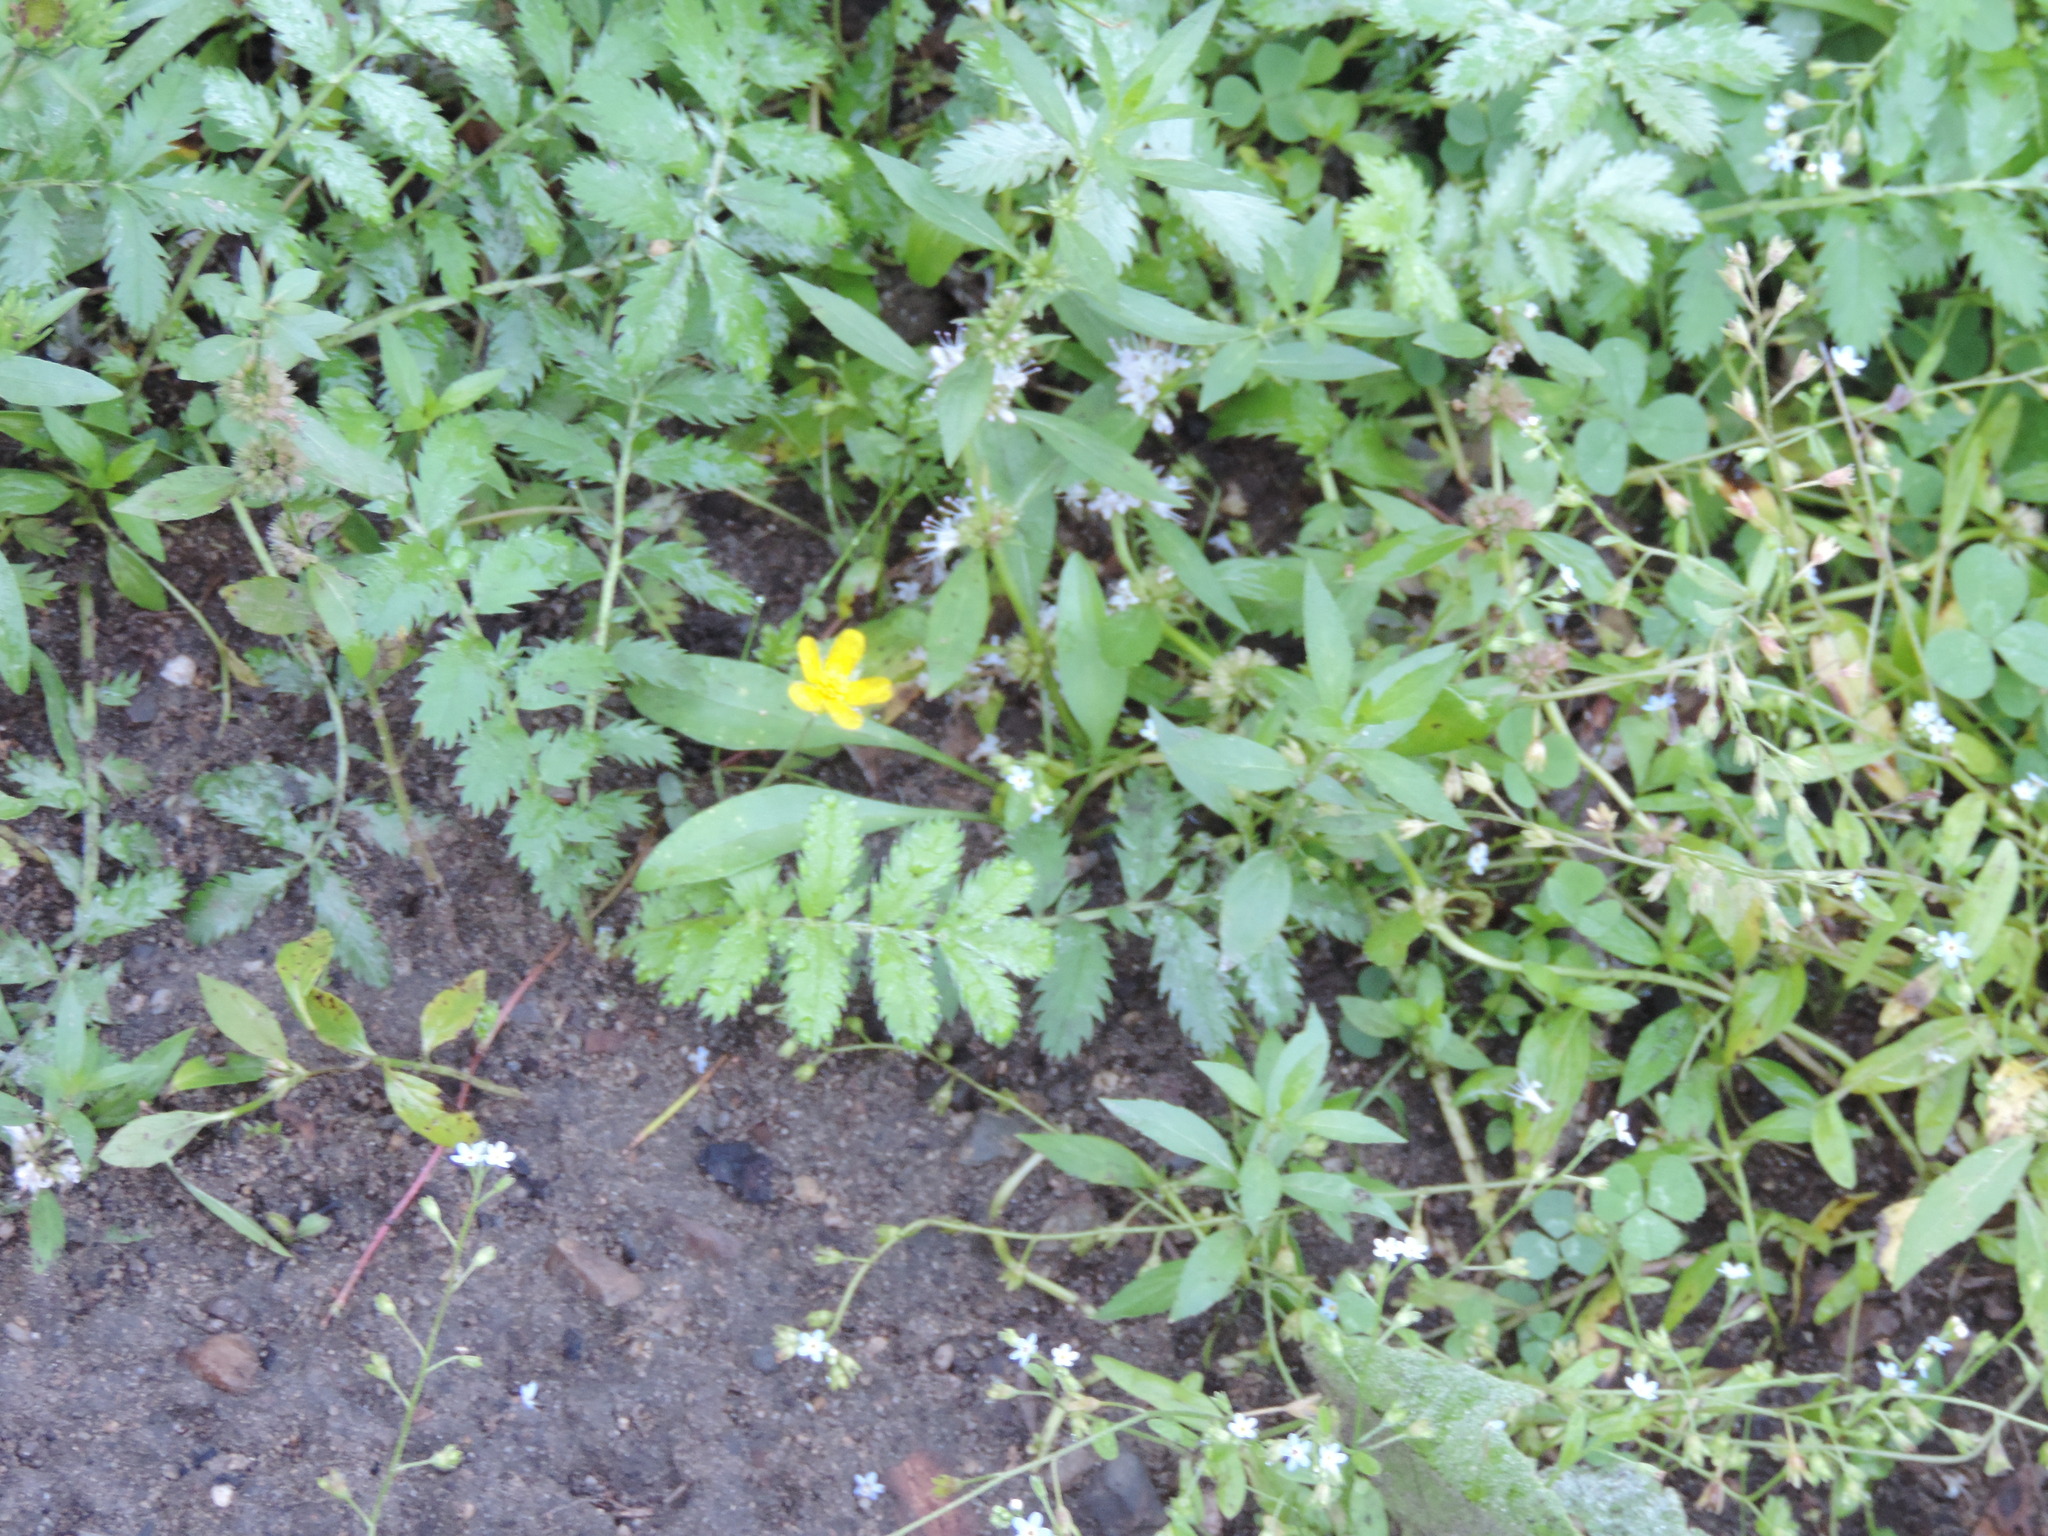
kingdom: Plantae
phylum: Tracheophyta
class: Magnoliopsida
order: Rosales
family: Rosaceae
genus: Argentina
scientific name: Argentina anserina
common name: Common silverweed
